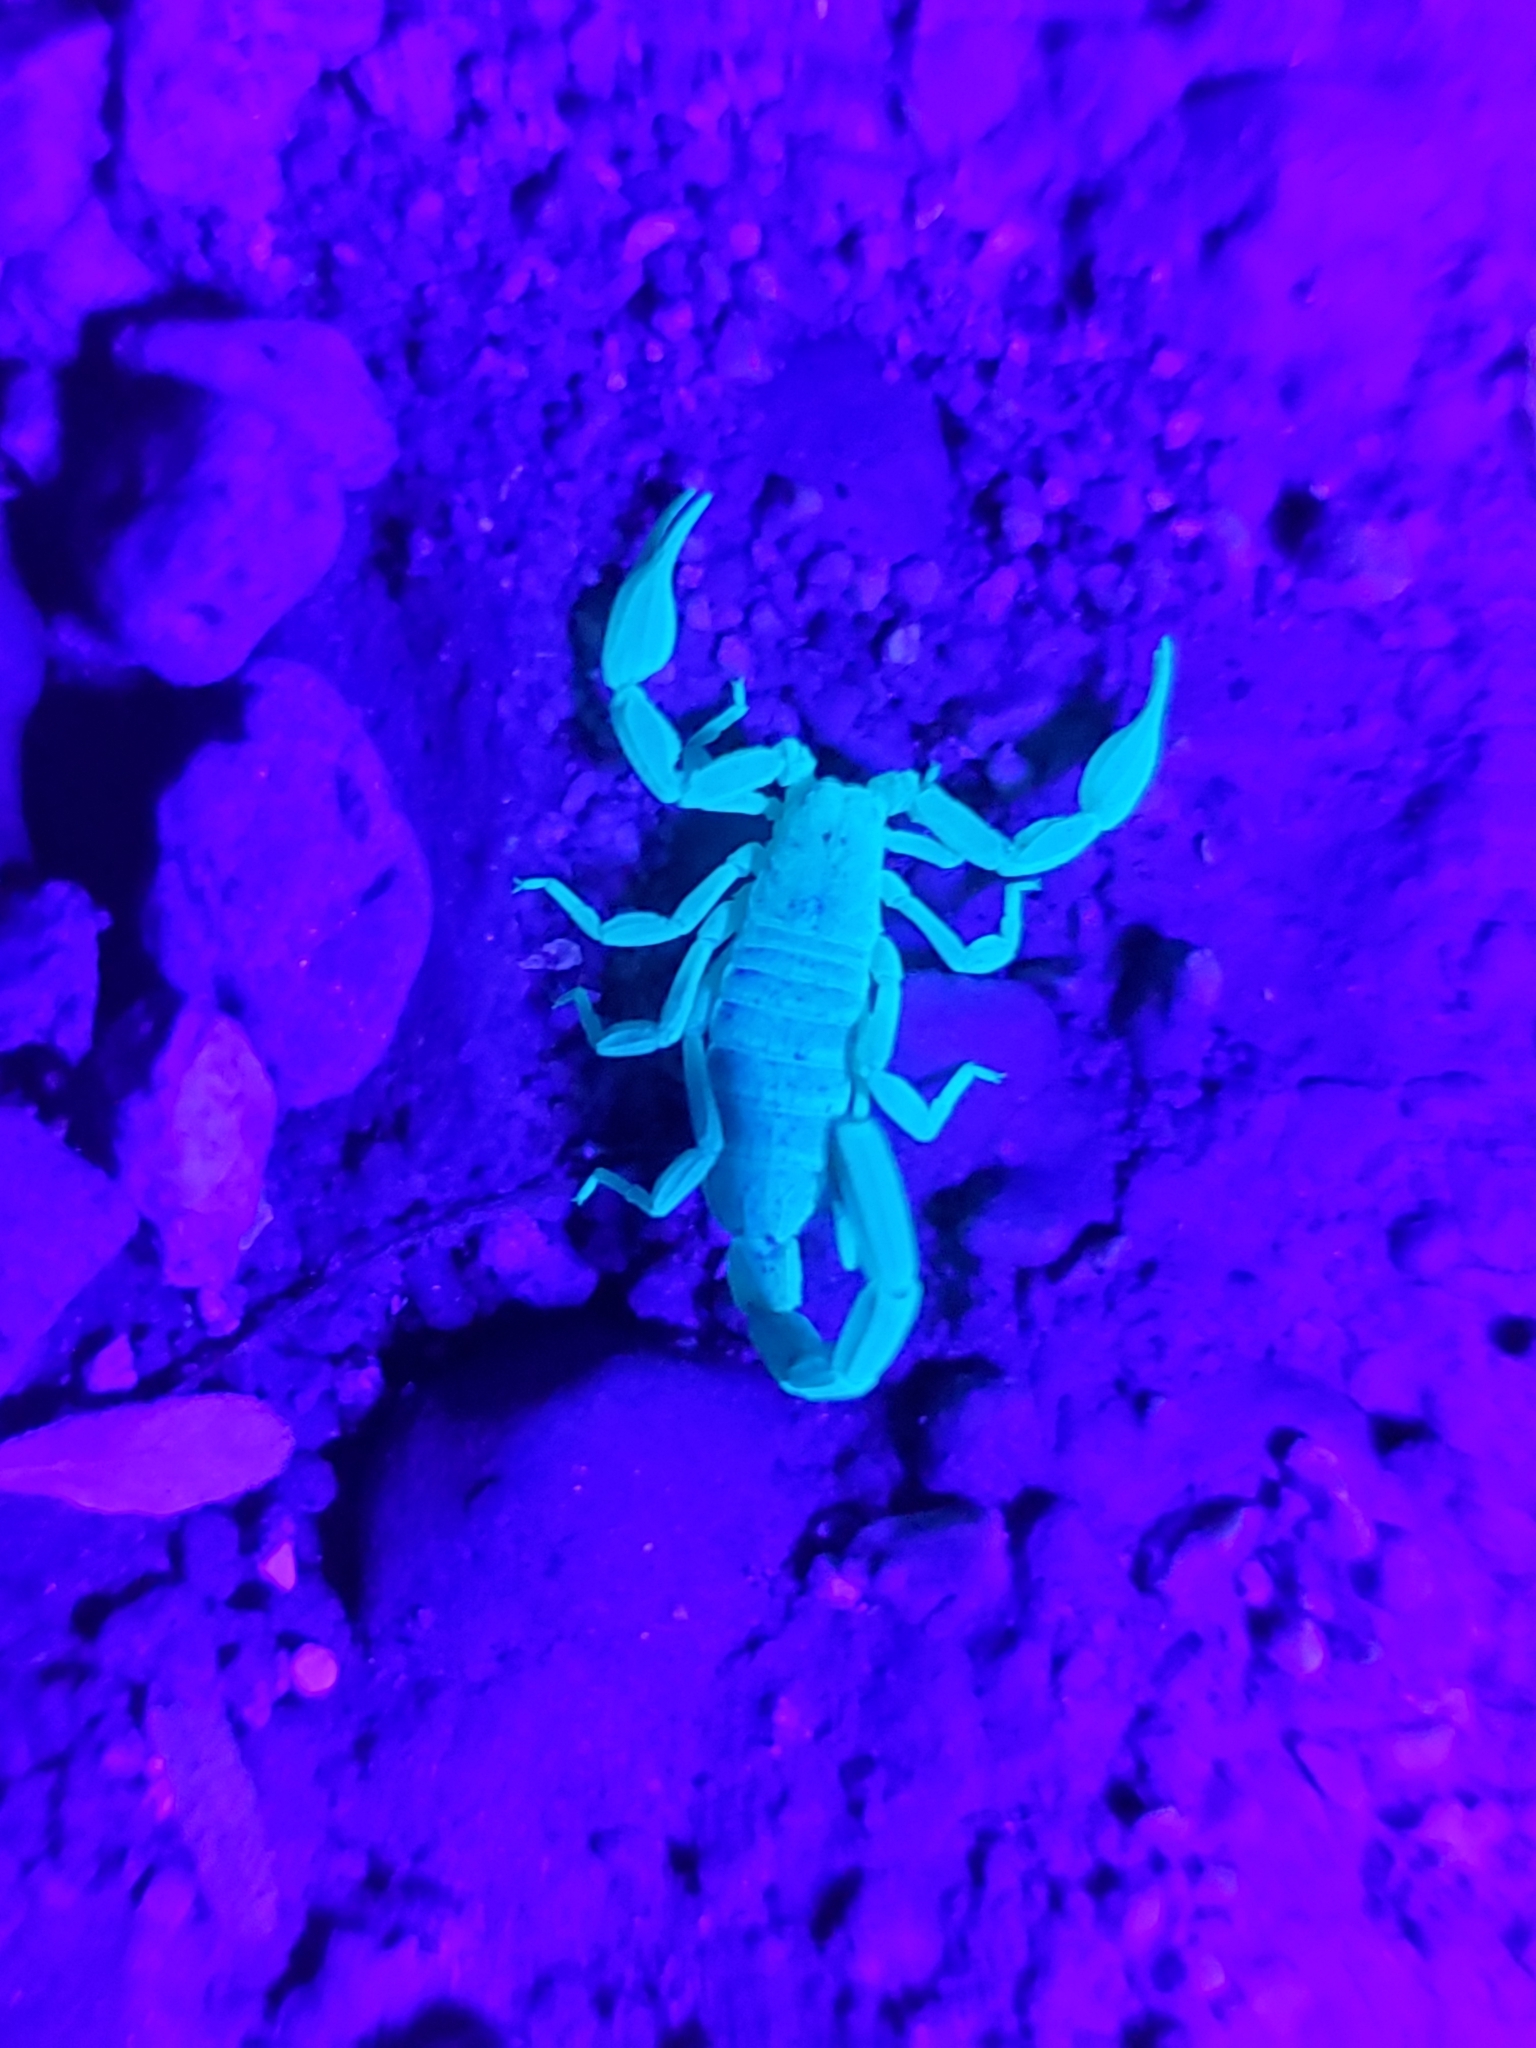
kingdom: Animalia
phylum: Arthropoda
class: Arachnida
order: Scorpiones
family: Vaejovidae
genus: Kochius
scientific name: Kochius hirsuticauda
